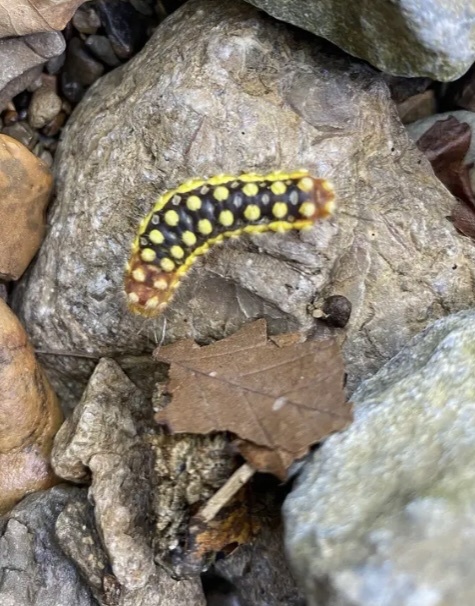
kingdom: Animalia
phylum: Arthropoda
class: Insecta
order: Lepidoptera
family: Megalopygidae
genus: Norape
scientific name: Norape cretata
